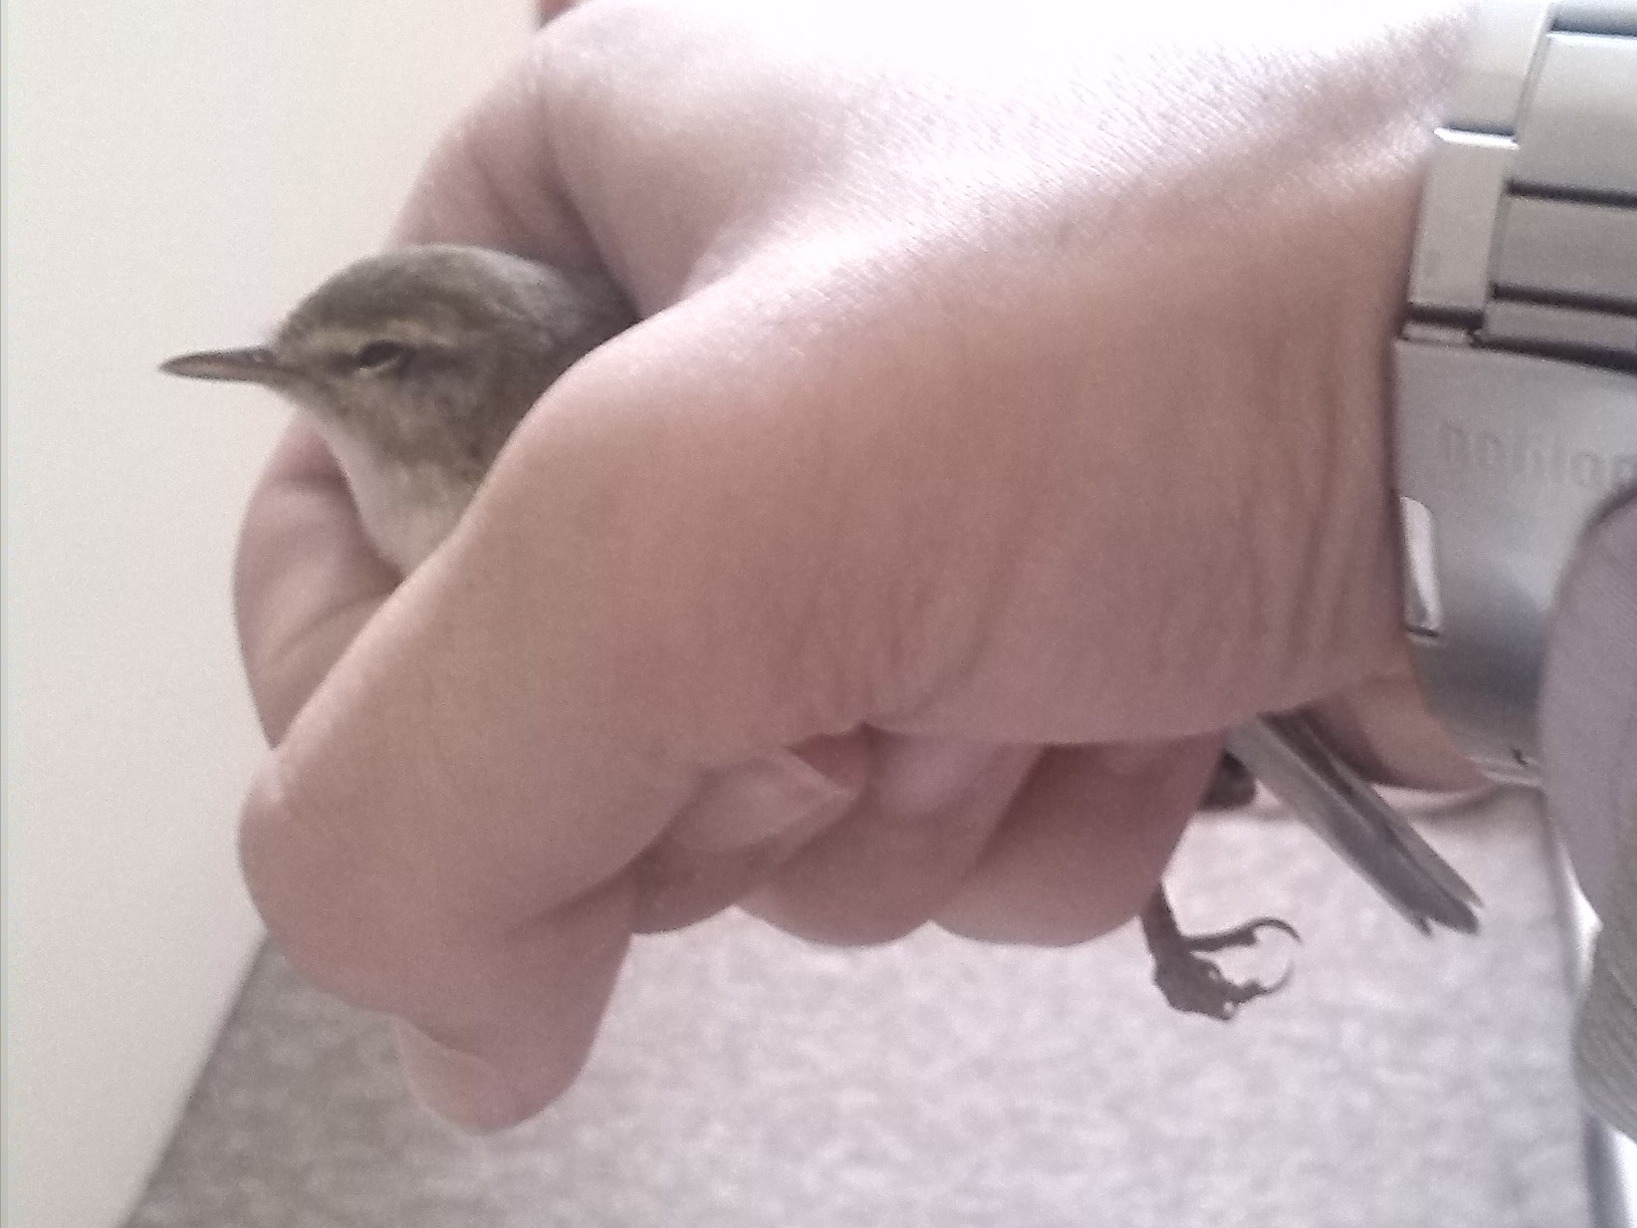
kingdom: Animalia
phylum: Chordata
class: Aves
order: Passeriformes
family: Phylloscopidae
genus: Phylloscopus
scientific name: Phylloscopus collybita
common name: Common chiffchaff
